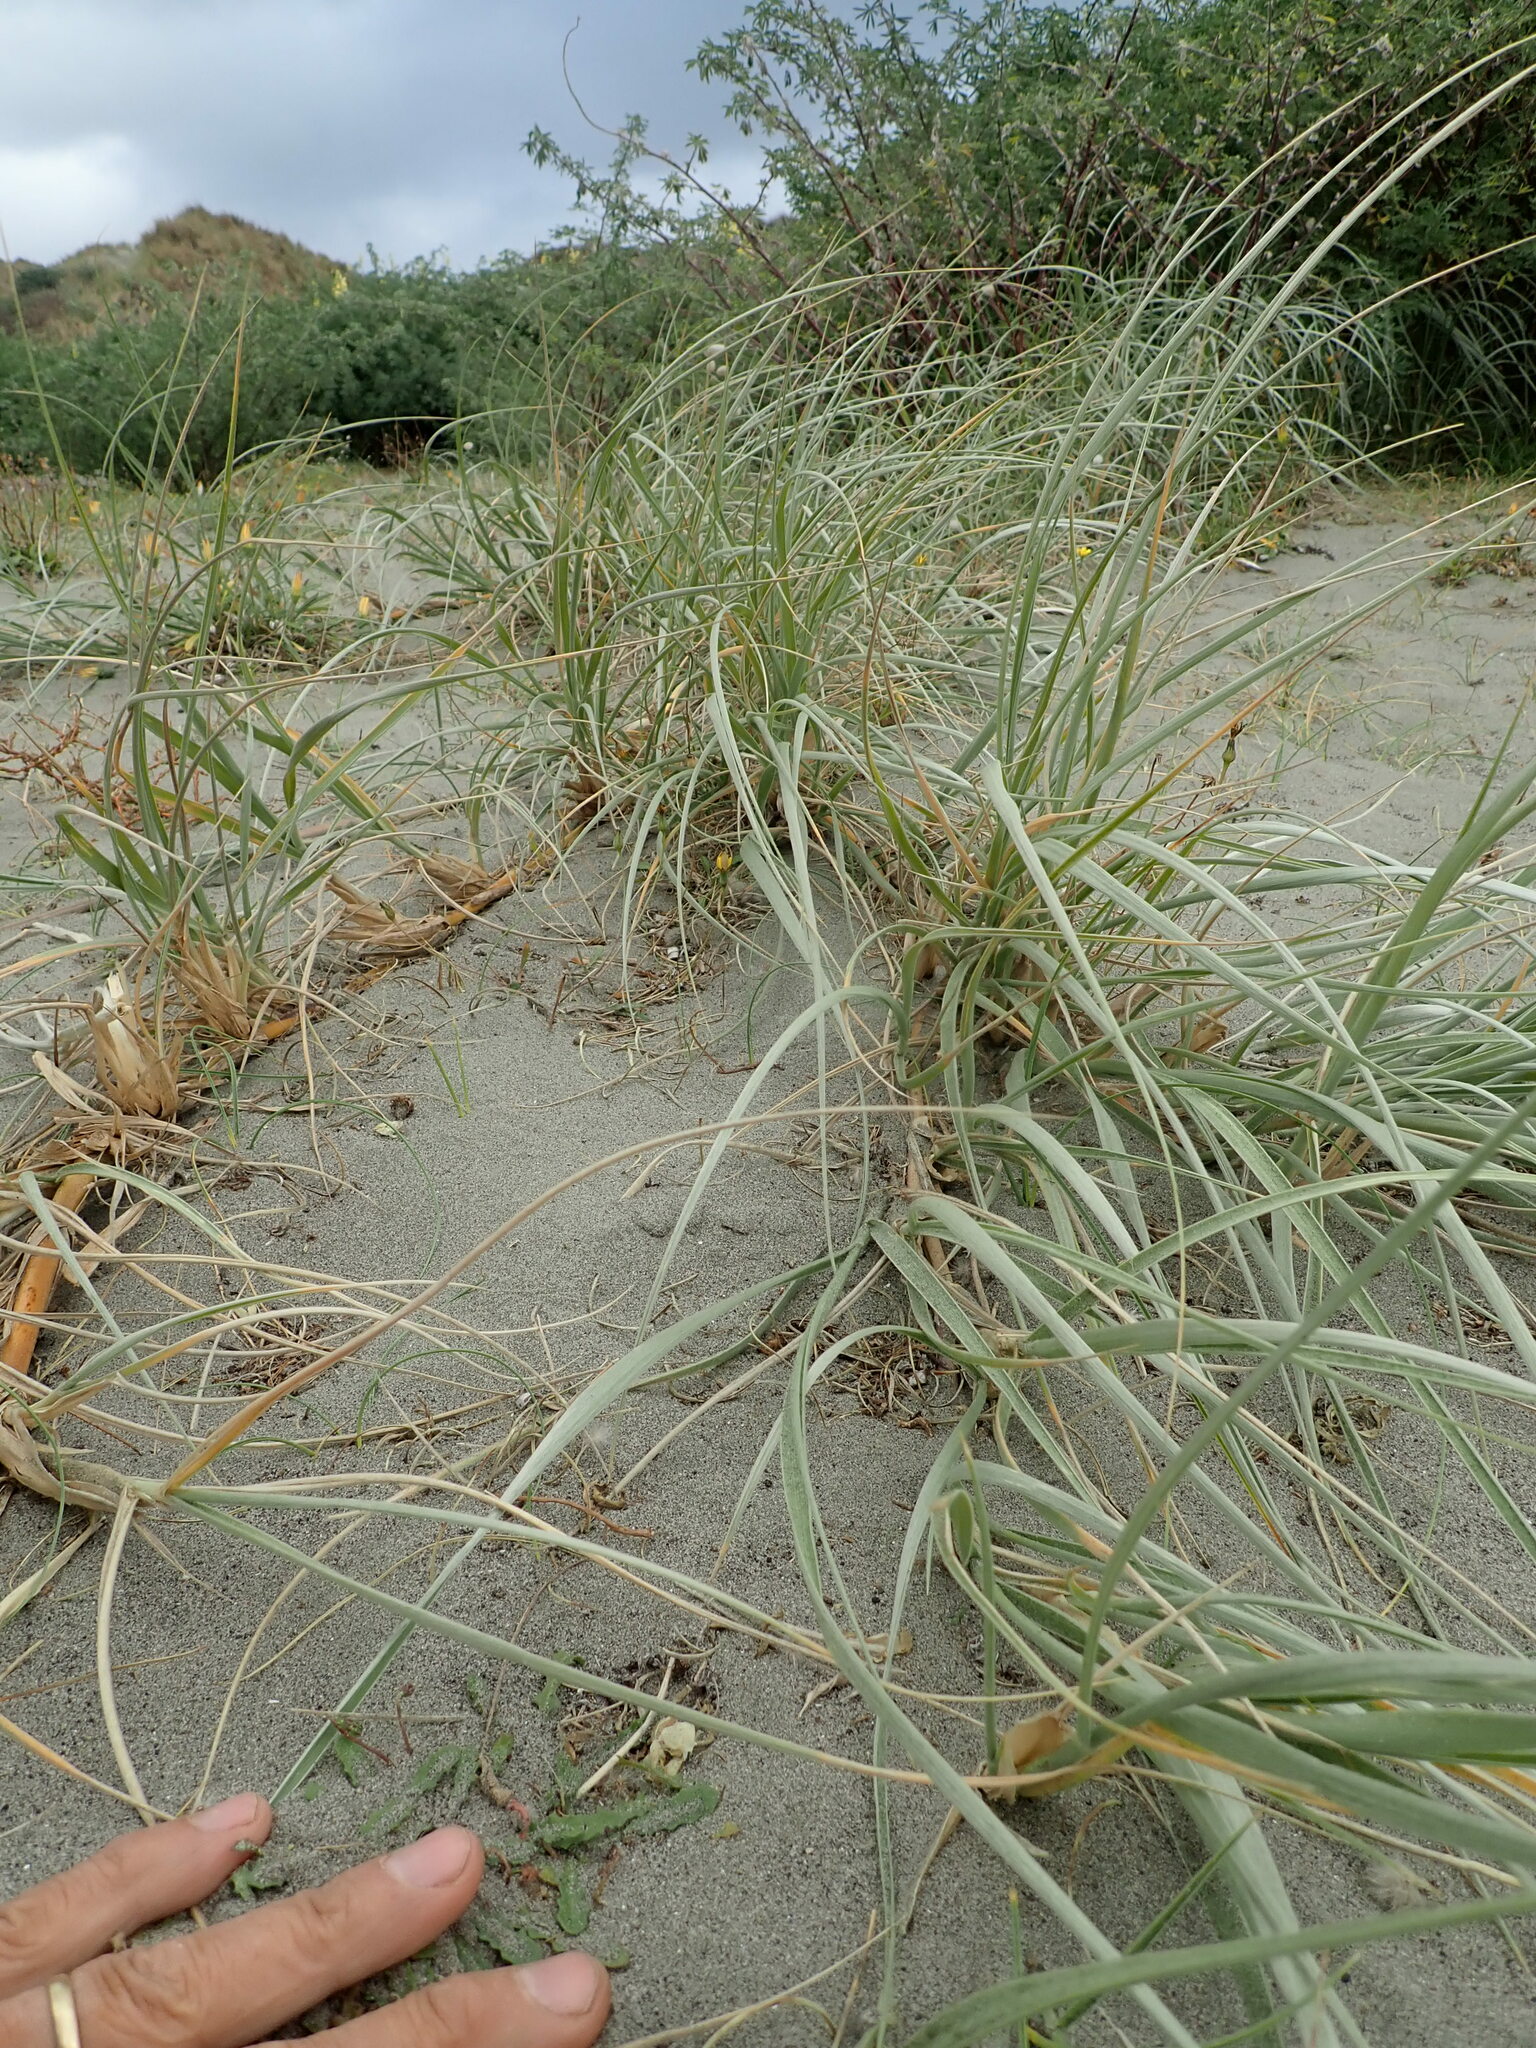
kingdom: Plantae
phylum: Tracheophyta
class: Liliopsida
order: Poales
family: Poaceae
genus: Spinifex
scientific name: Spinifex sericeus
